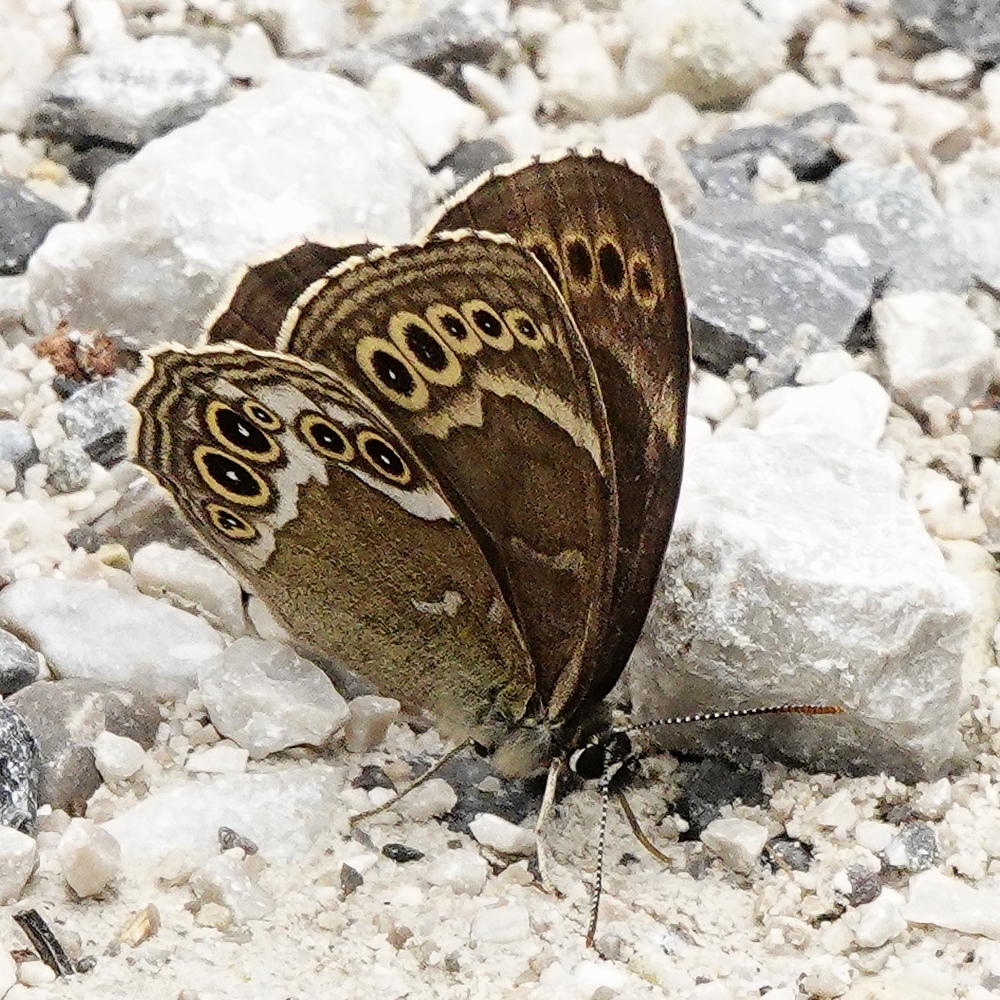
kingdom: Animalia
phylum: Arthropoda
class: Insecta
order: Lepidoptera
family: Nymphalidae
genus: Pararge
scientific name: Pararge Lopinga achine
